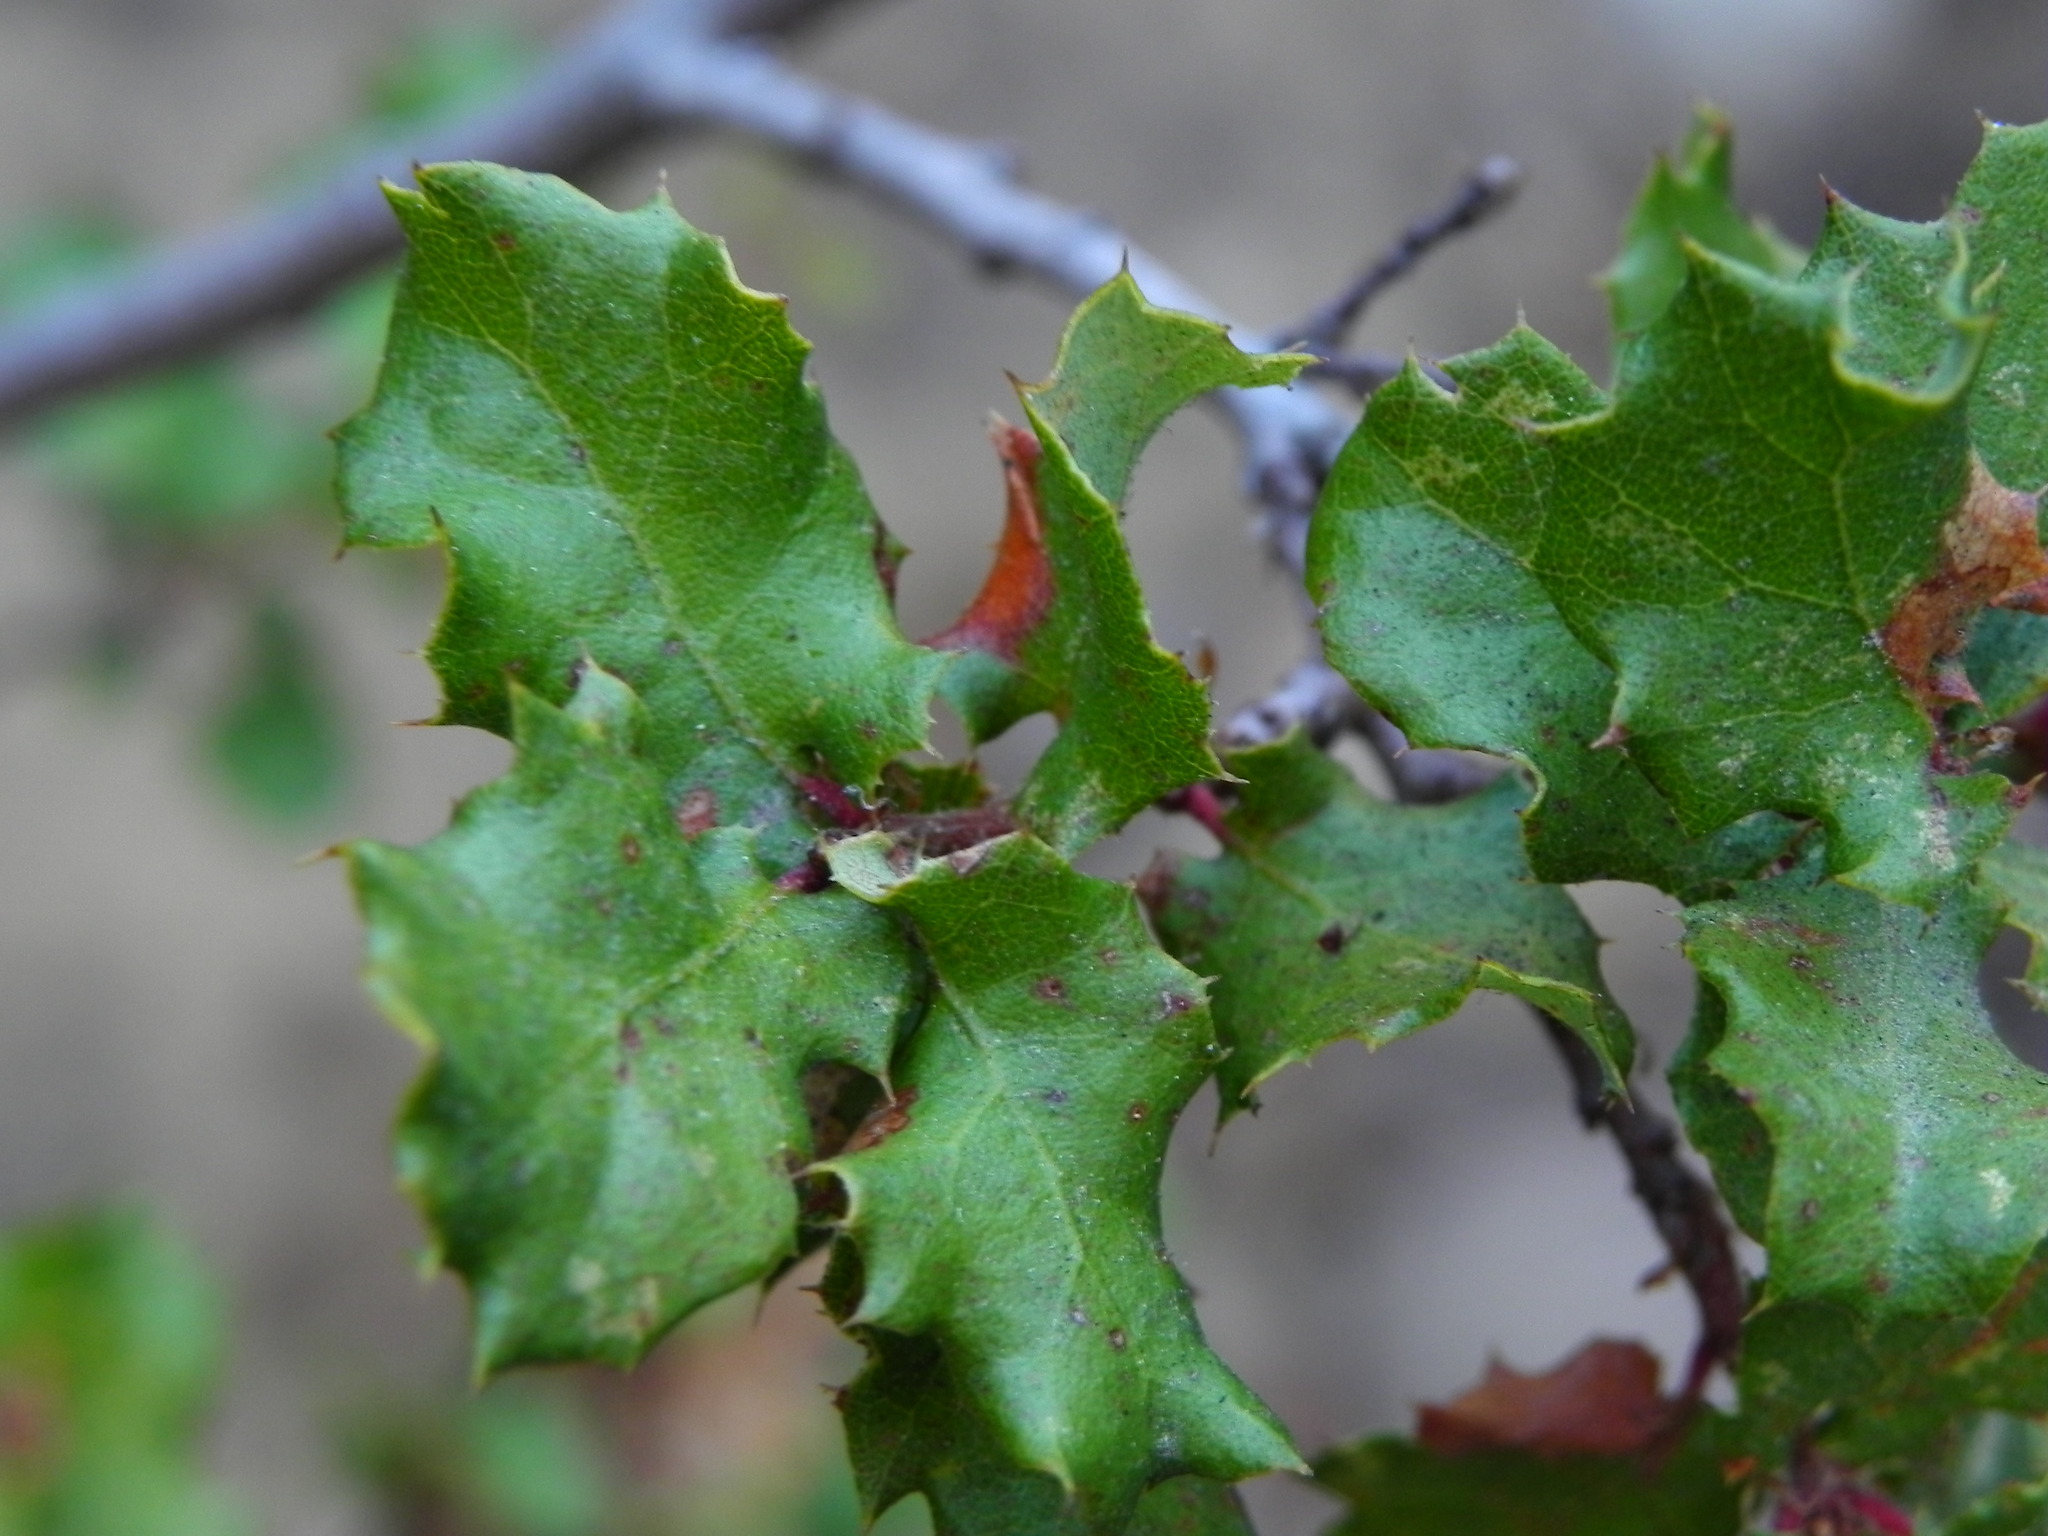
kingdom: Plantae
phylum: Tracheophyta
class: Magnoliopsida
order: Fagales
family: Fagaceae
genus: Quercus
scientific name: Quercus dumosa
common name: Coastal sage scrub oak
